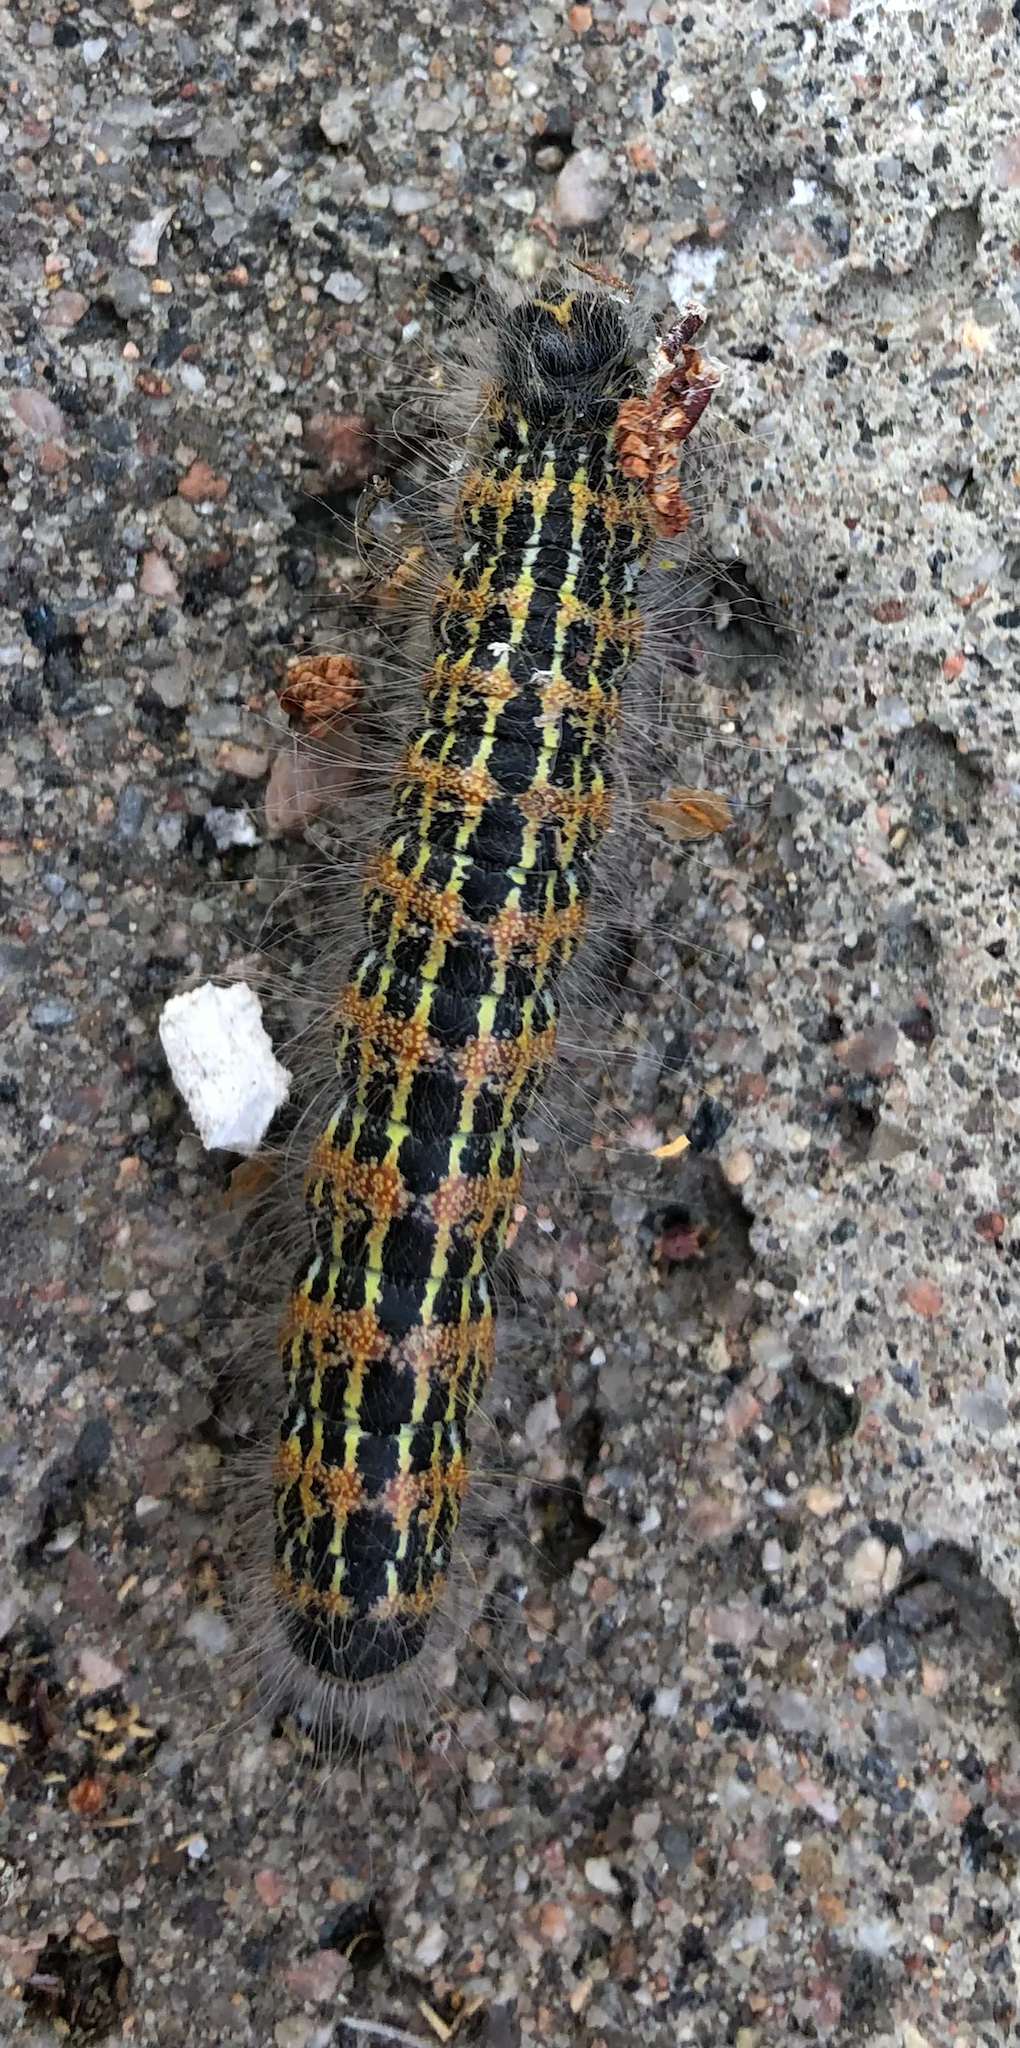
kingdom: Animalia
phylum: Arthropoda
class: Insecta
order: Lepidoptera
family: Notodontidae
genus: Phalera
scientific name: Phalera bucephala
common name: Buff-tip
